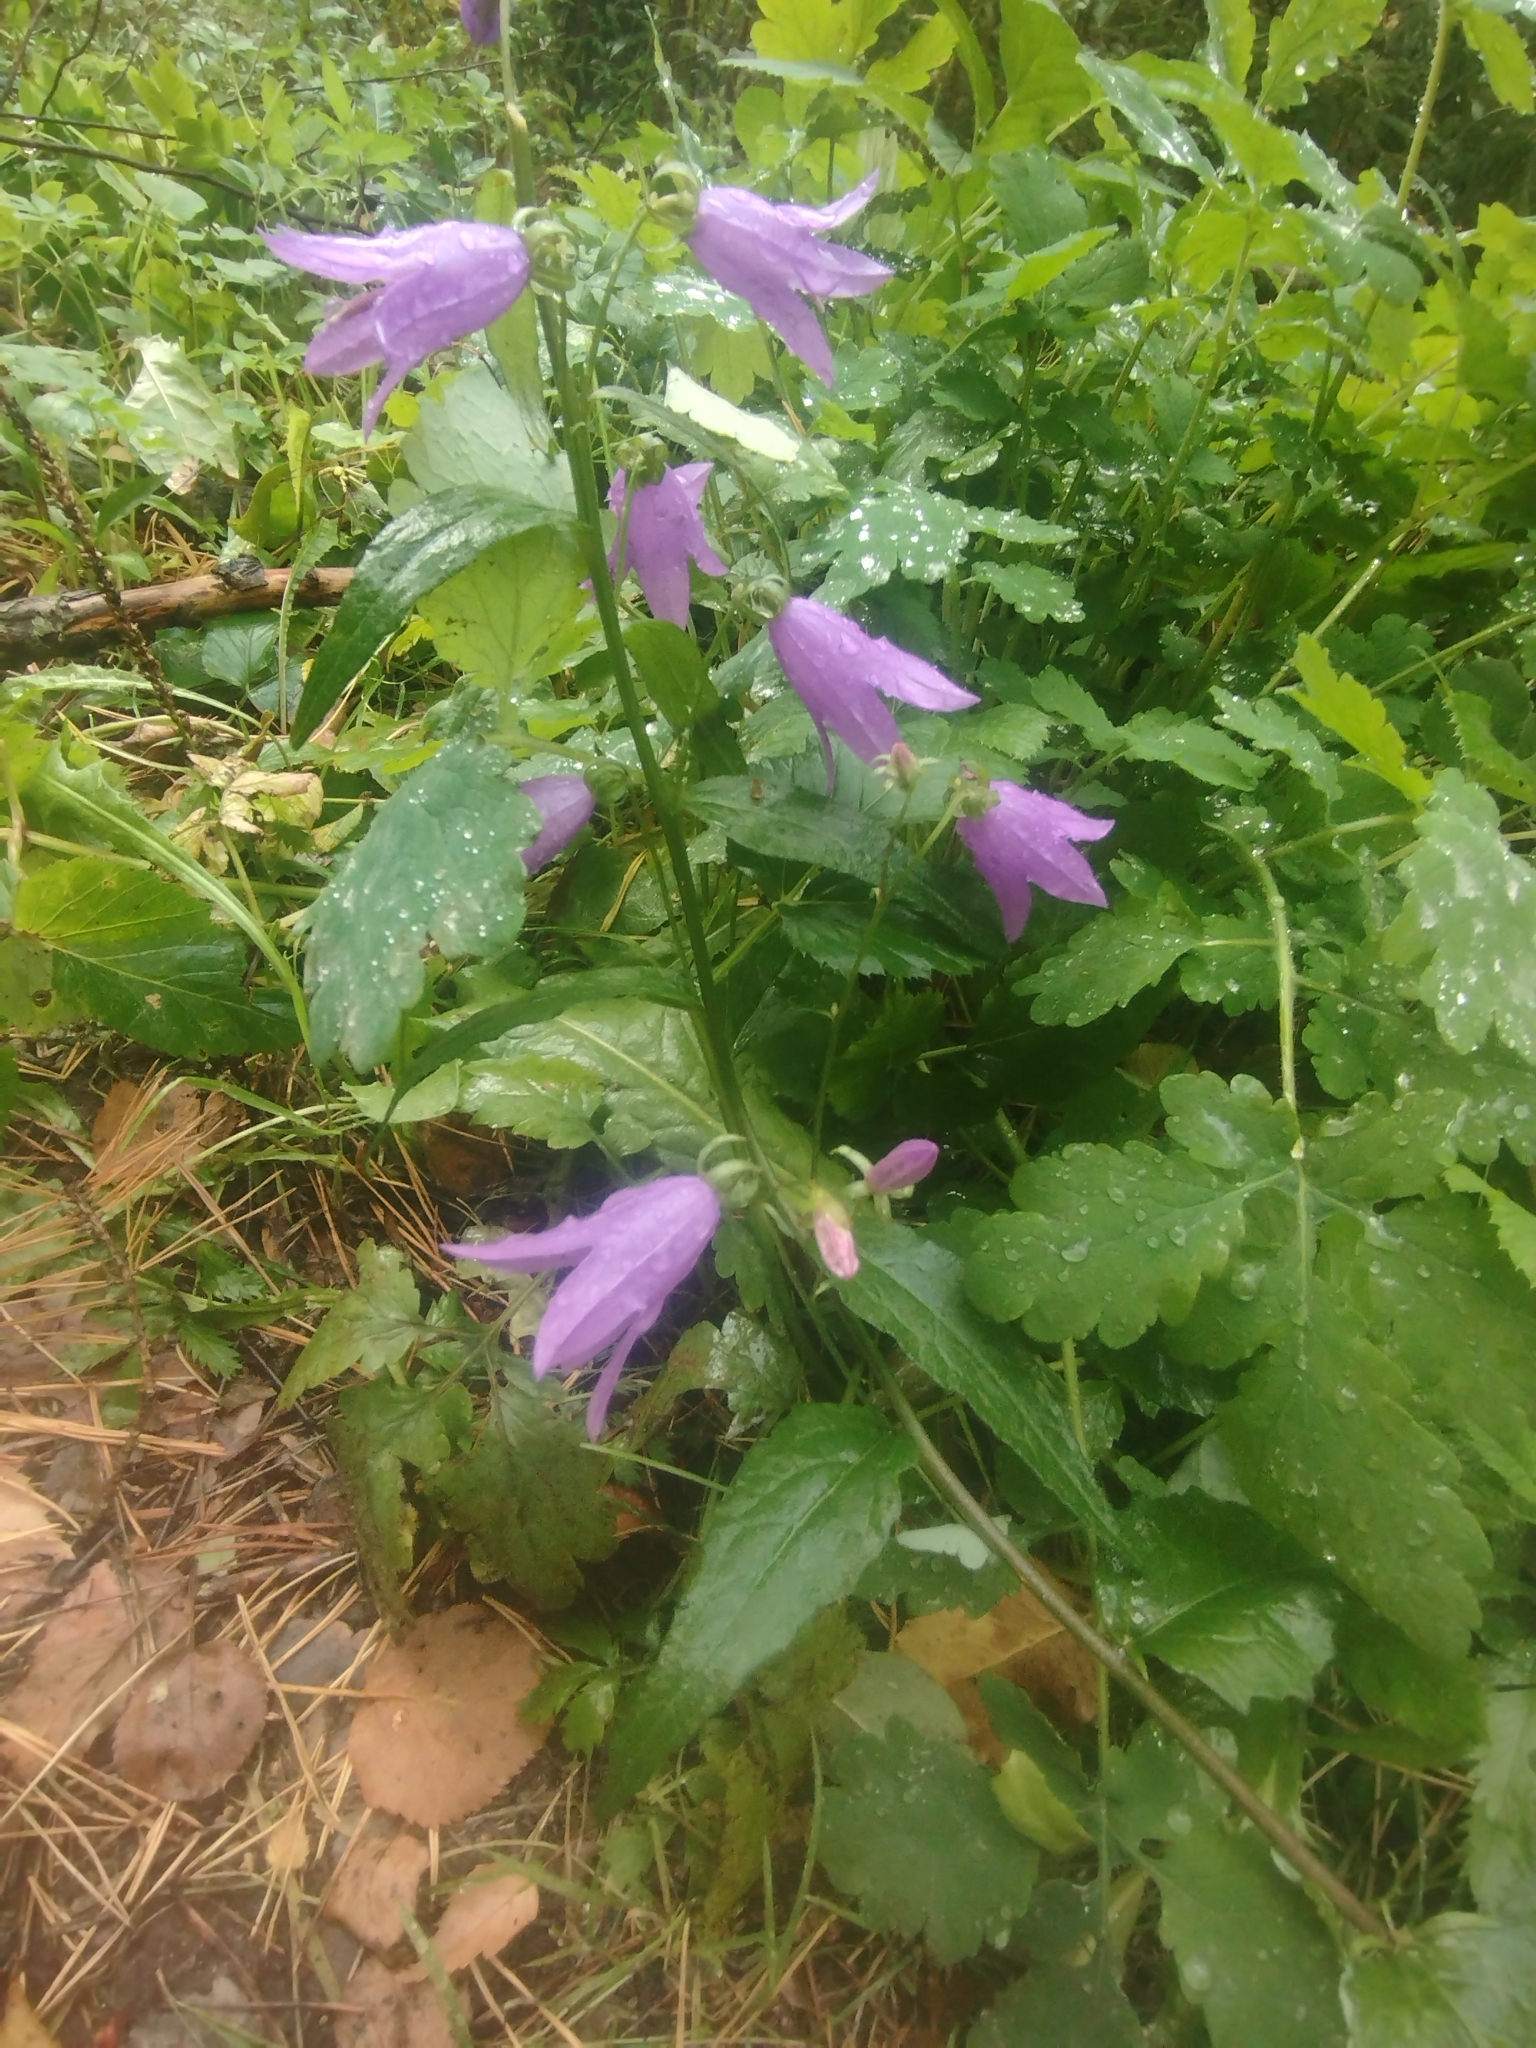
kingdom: Plantae
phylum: Tracheophyta
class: Magnoliopsida
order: Asterales
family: Campanulaceae
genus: Campanula
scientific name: Campanula rapunculoides
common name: Creeping bellflower
